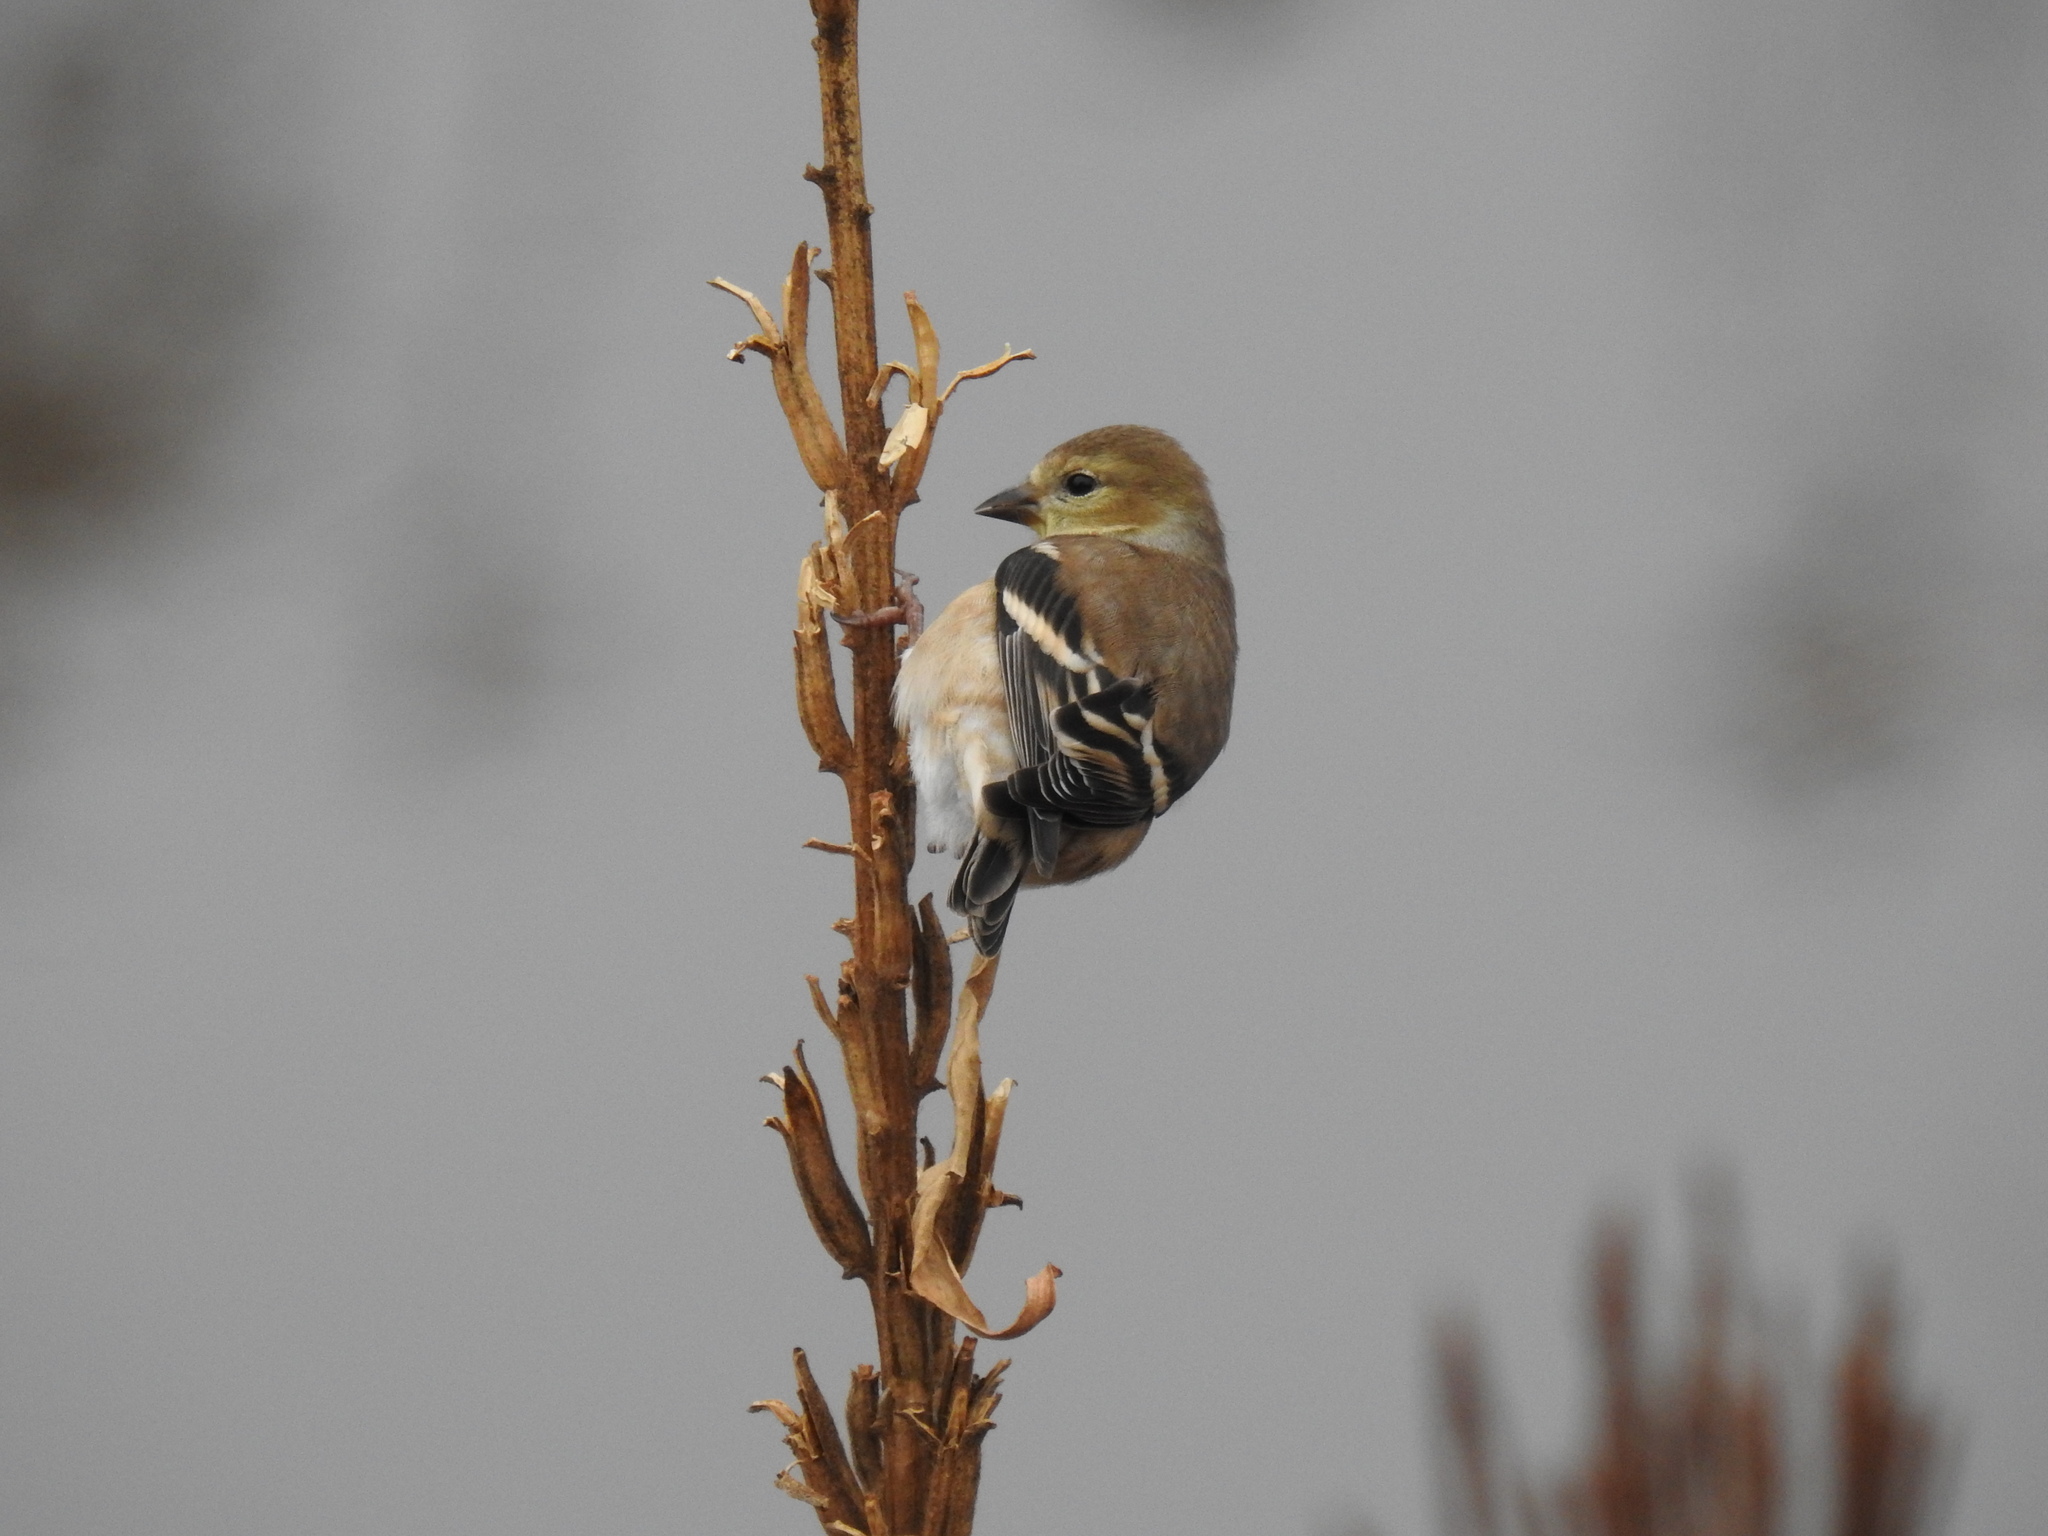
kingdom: Animalia
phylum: Chordata
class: Aves
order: Passeriformes
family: Fringillidae
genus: Spinus
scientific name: Spinus tristis
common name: American goldfinch
